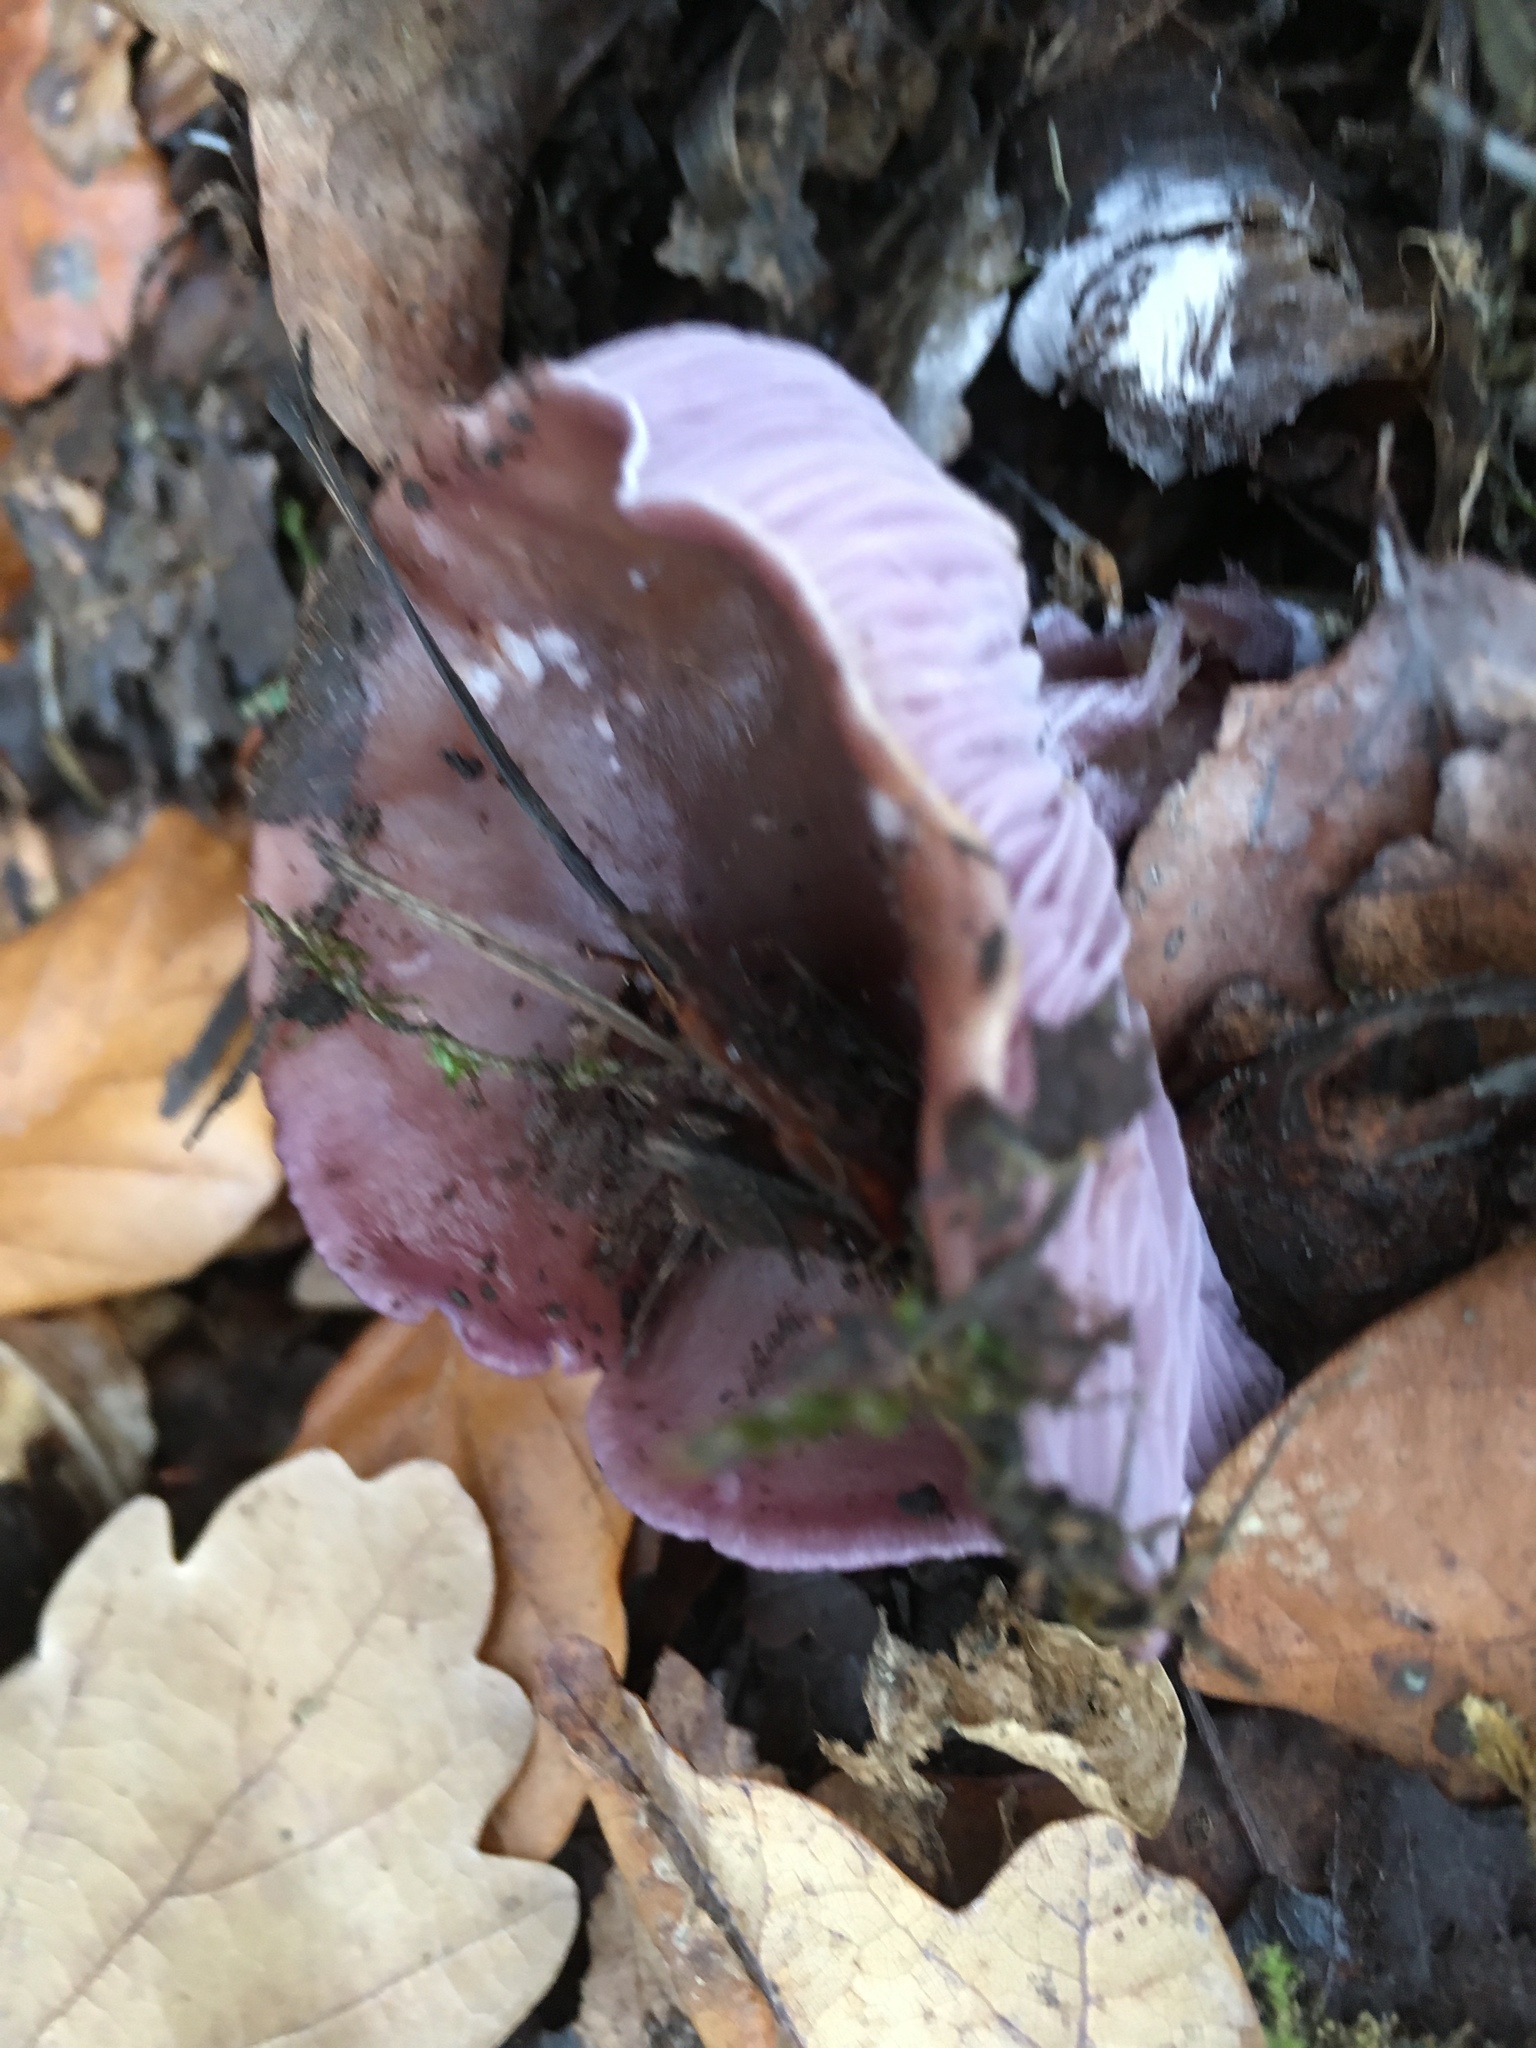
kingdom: Fungi
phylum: Basidiomycota
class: Agaricomycetes
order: Agaricales
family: Tricholomataceae
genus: Collybia
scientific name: Collybia
